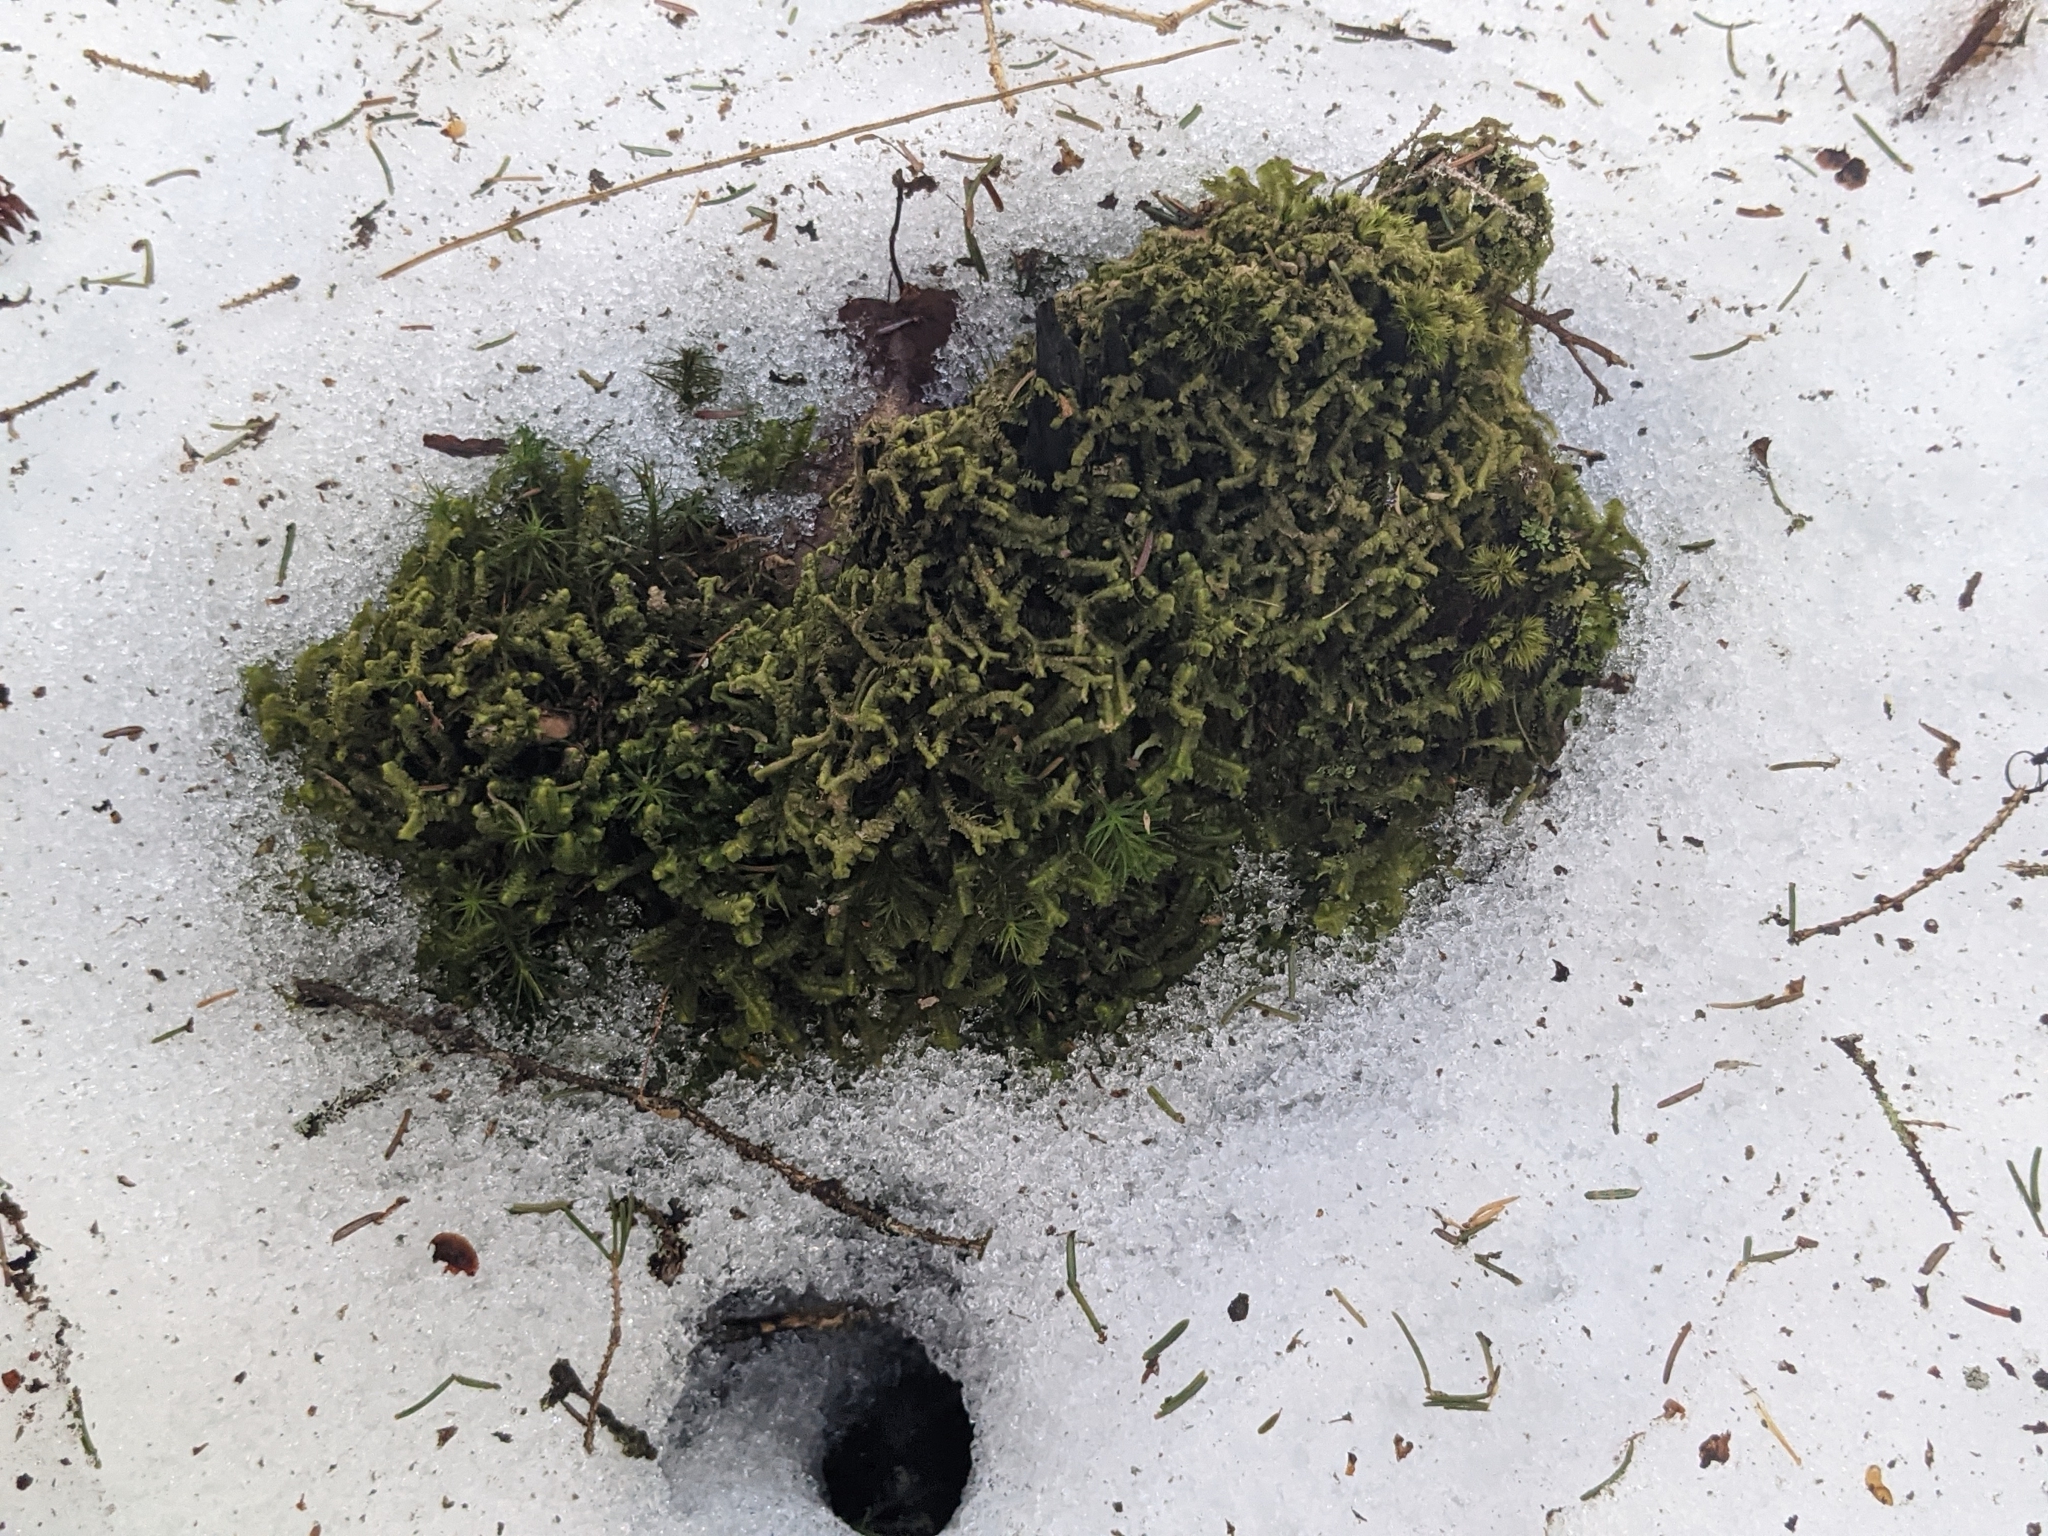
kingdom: Plantae
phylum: Marchantiophyta
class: Jungermanniopsida
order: Jungermanniales
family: Lepidoziaceae
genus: Bazzania
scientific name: Bazzania trilobata
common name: Three-lobed whipwort
